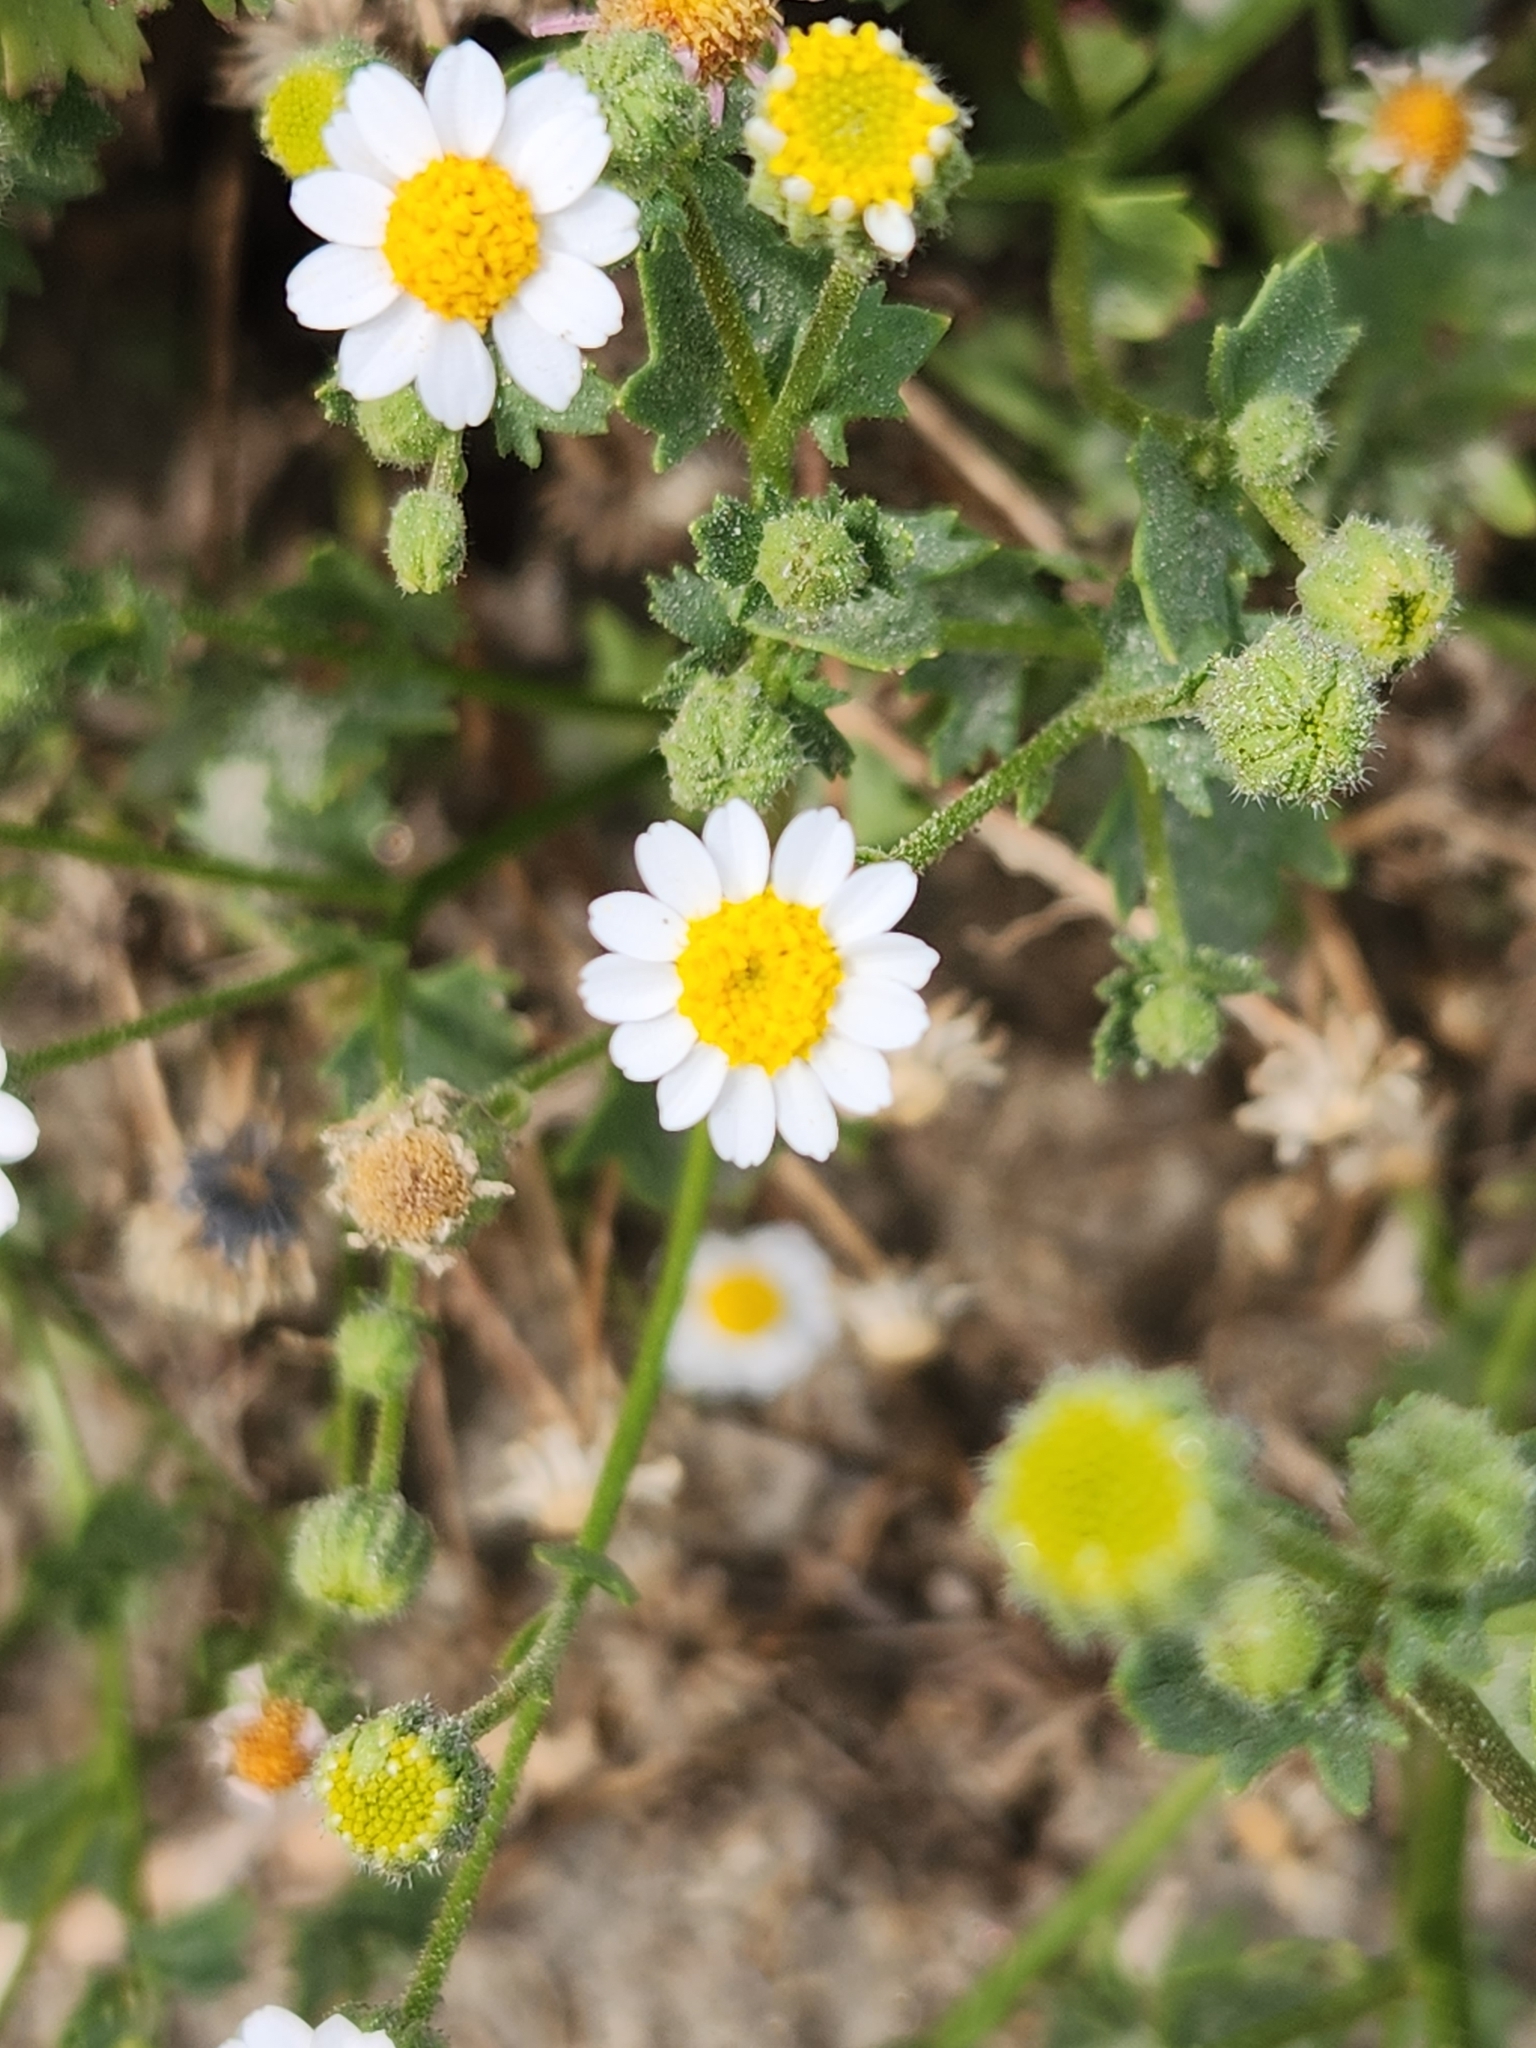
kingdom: Plantae
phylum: Tracheophyta
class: Magnoliopsida
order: Asterales
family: Asteraceae
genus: Laphamia
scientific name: Laphamia emoryi
